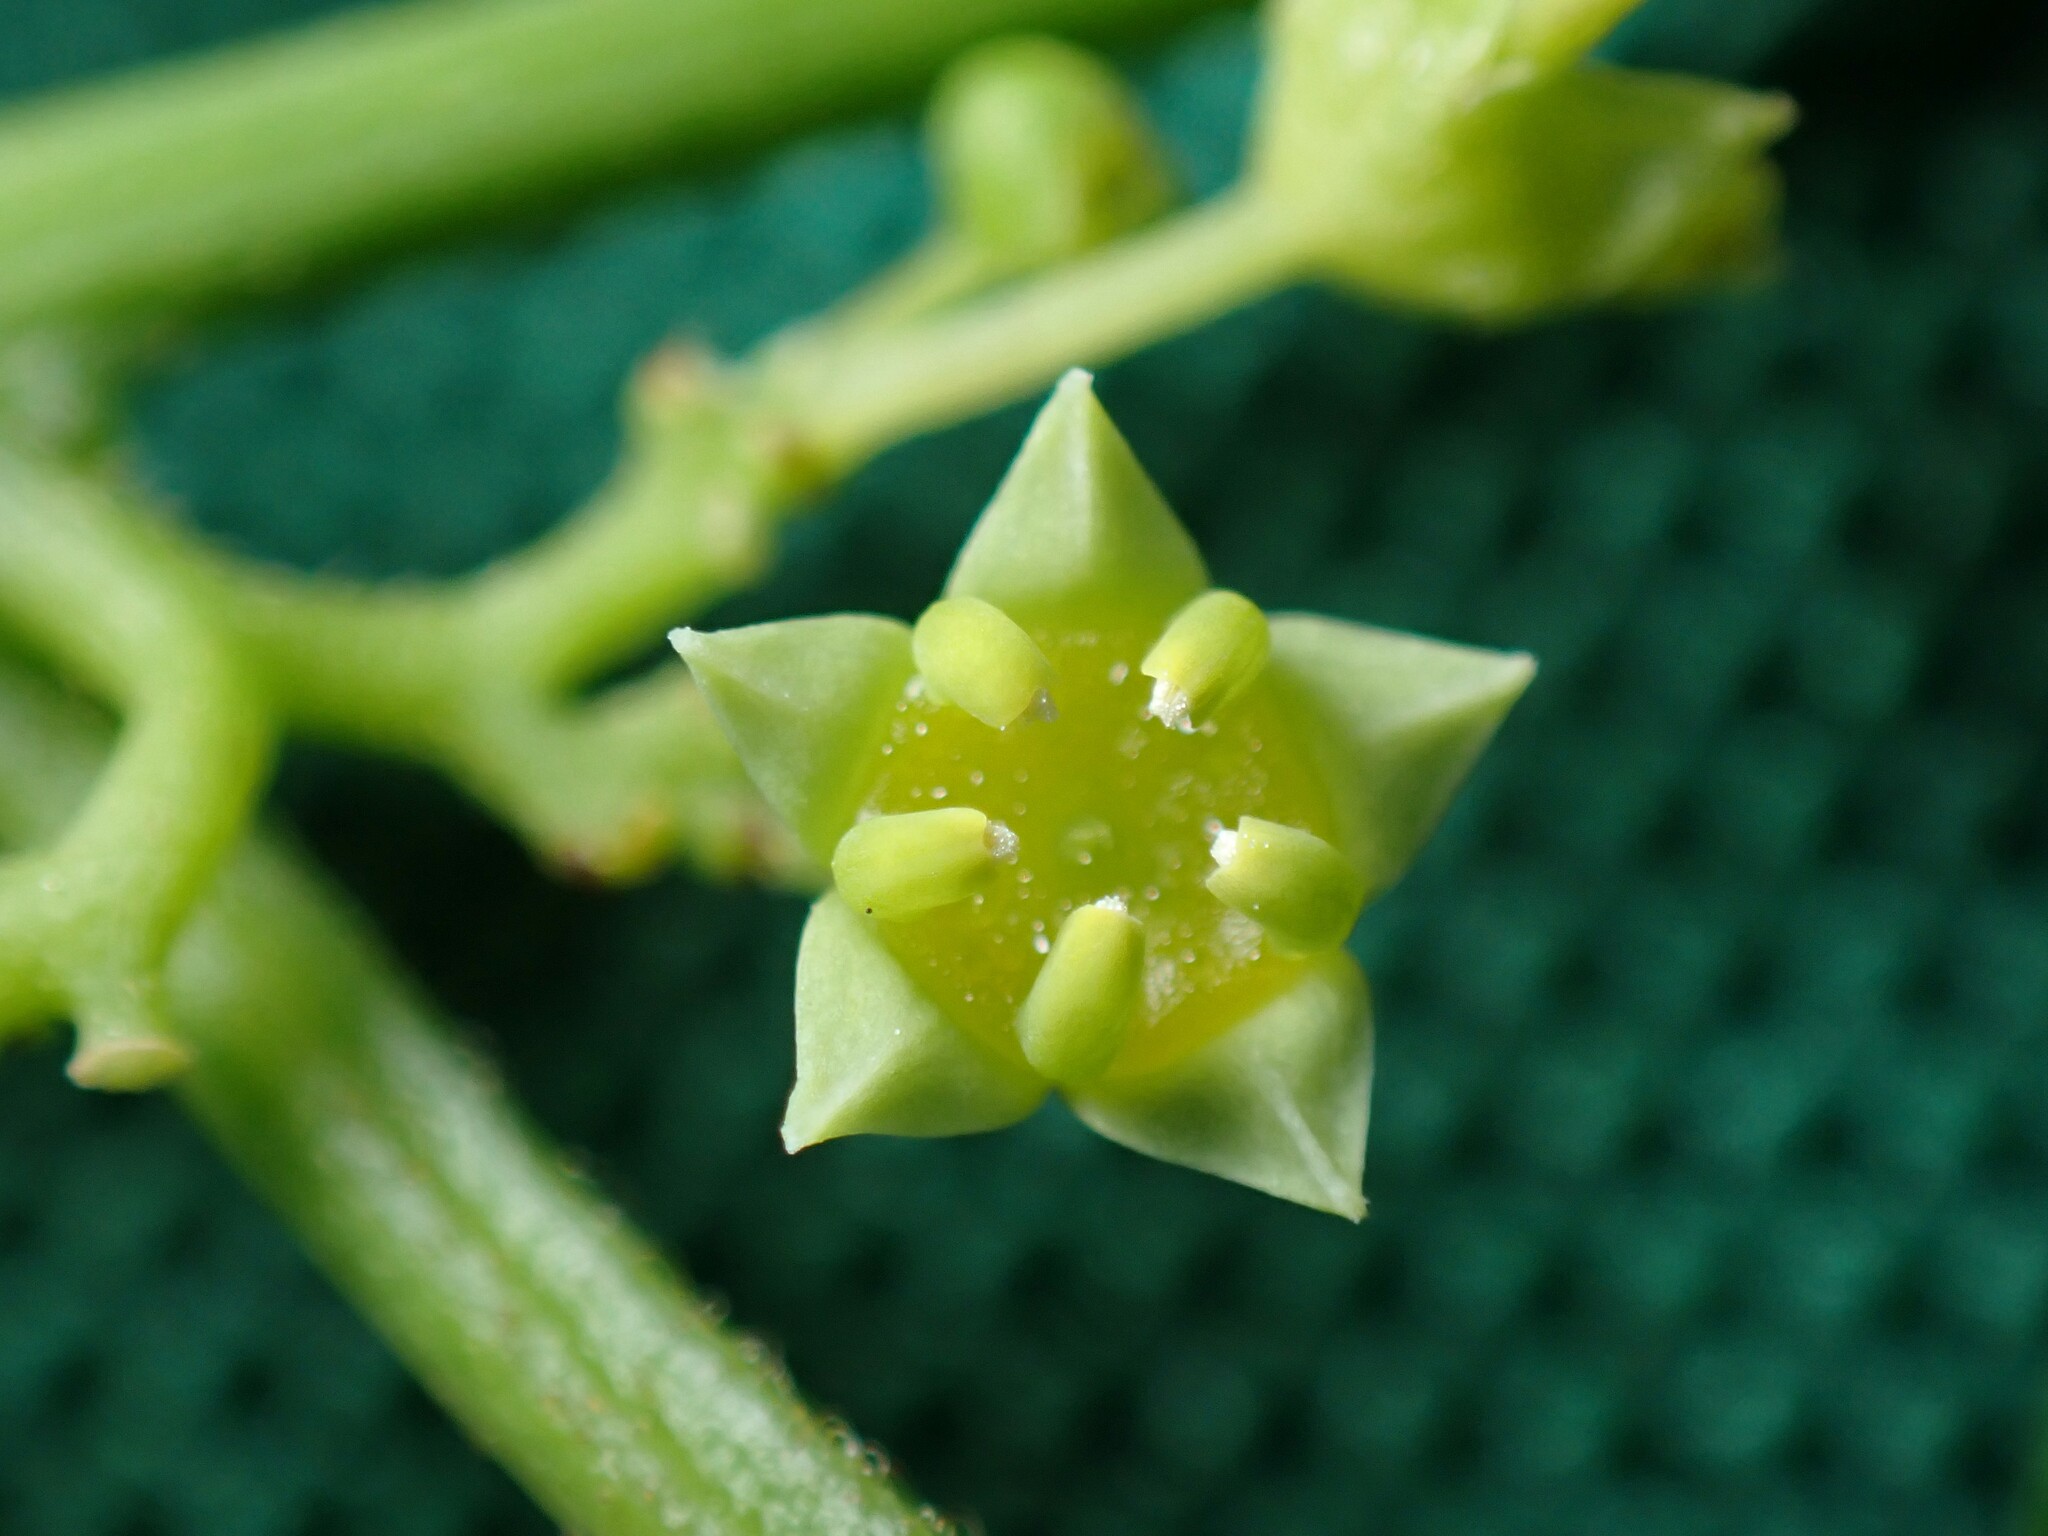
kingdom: Plantae
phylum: Tracheophyta
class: Magnoliopsida
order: Rosales
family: Rhamnaceae
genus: Colubrina
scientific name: Colubrina asiatica
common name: Asian nakedwood
